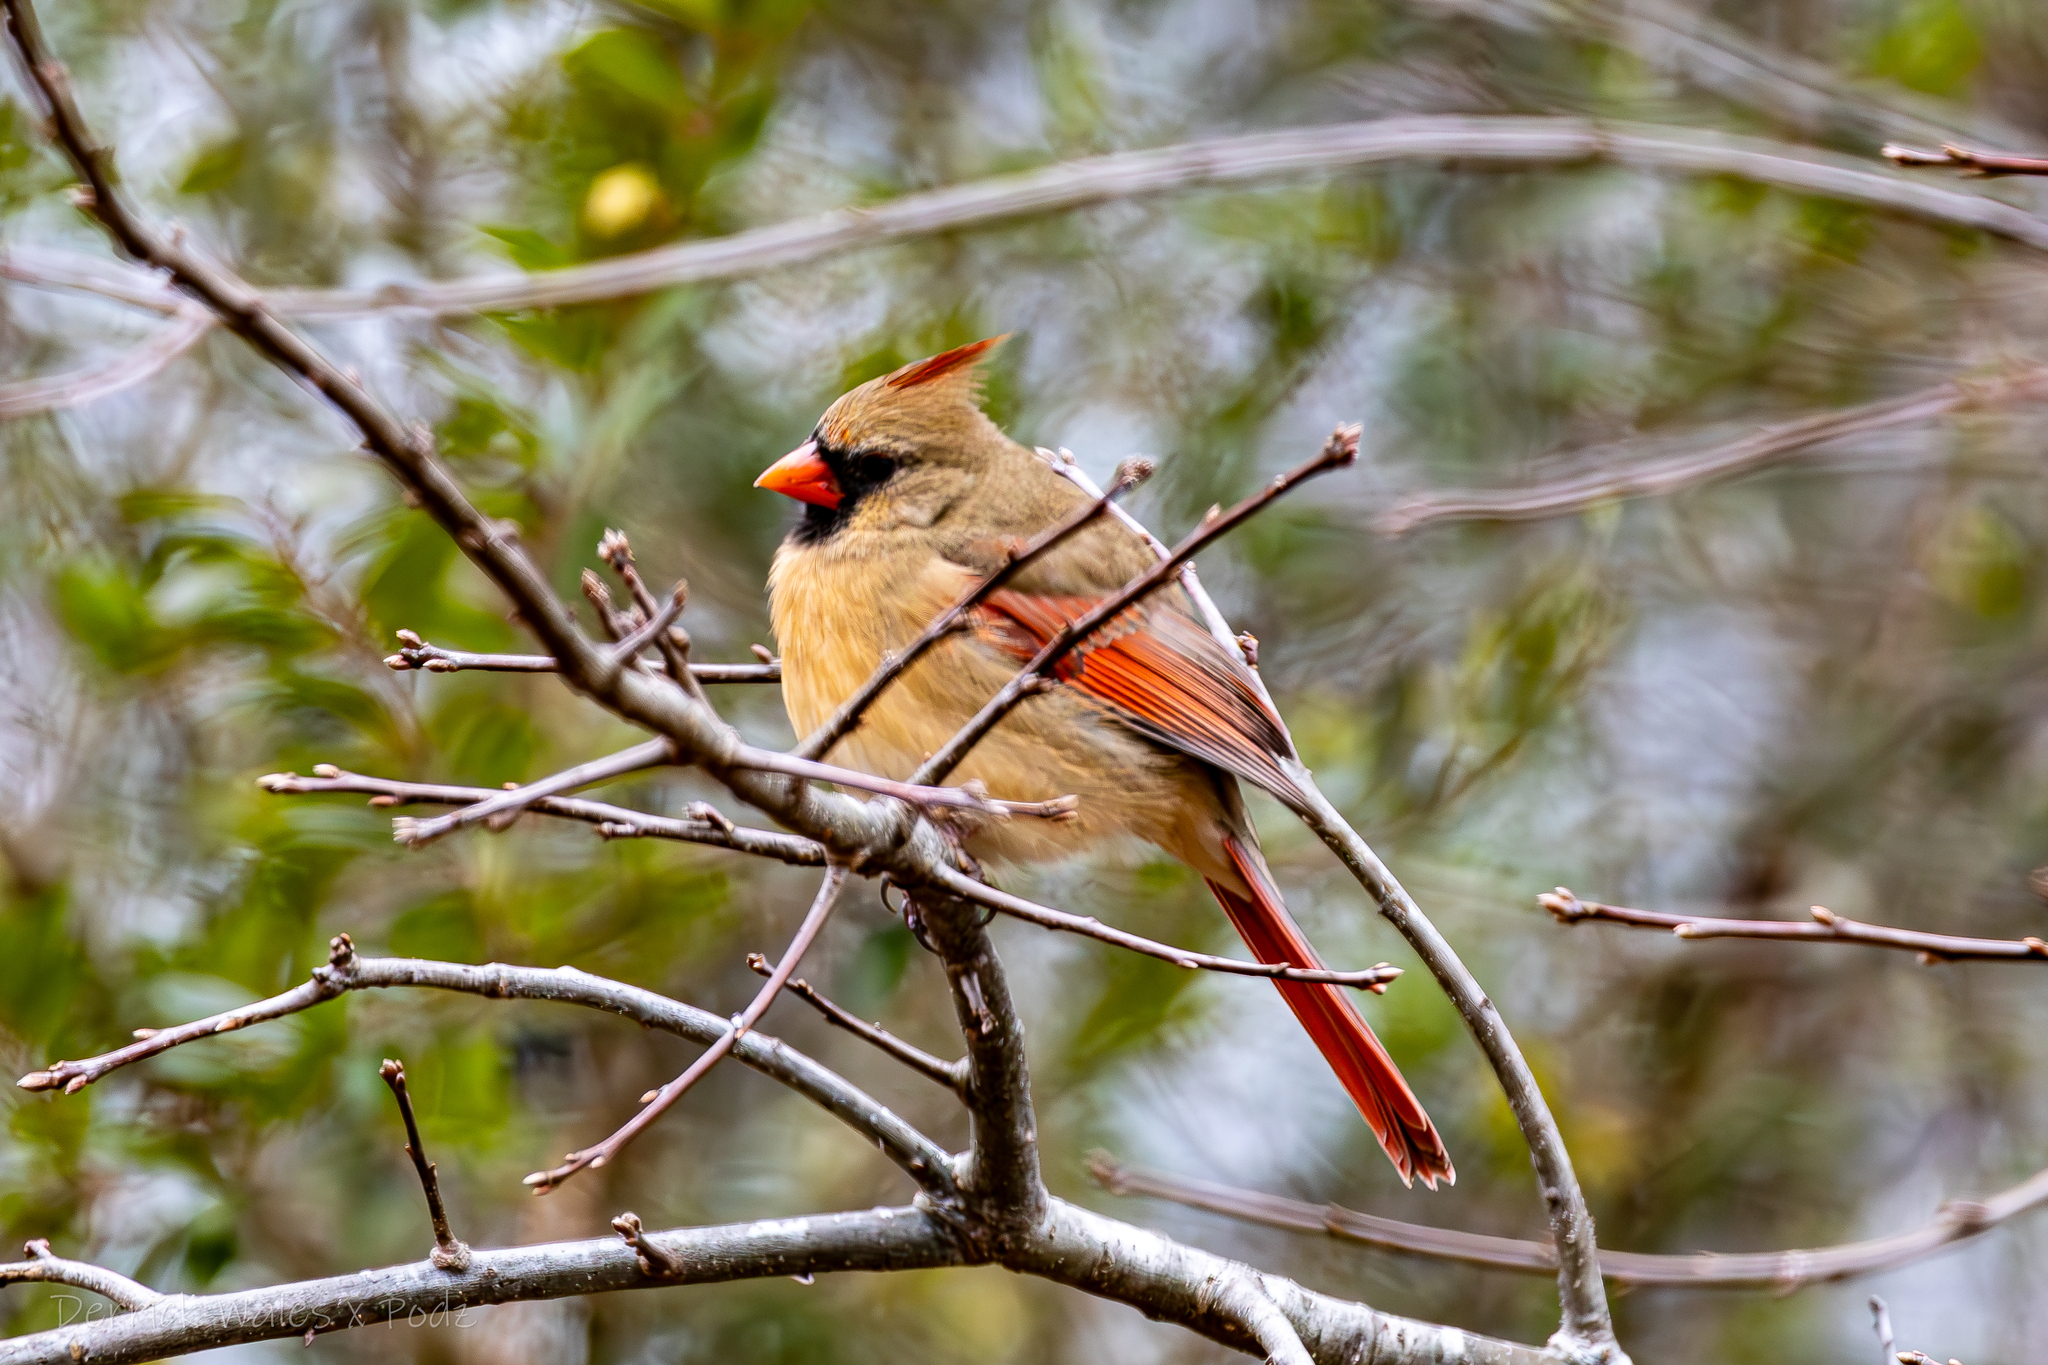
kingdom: Animalia
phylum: Chordata
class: Aves
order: Passeriformes
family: Cardinalidae
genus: Cardinalis
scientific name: Cardinalis cardinalis
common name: Northern cardinal
